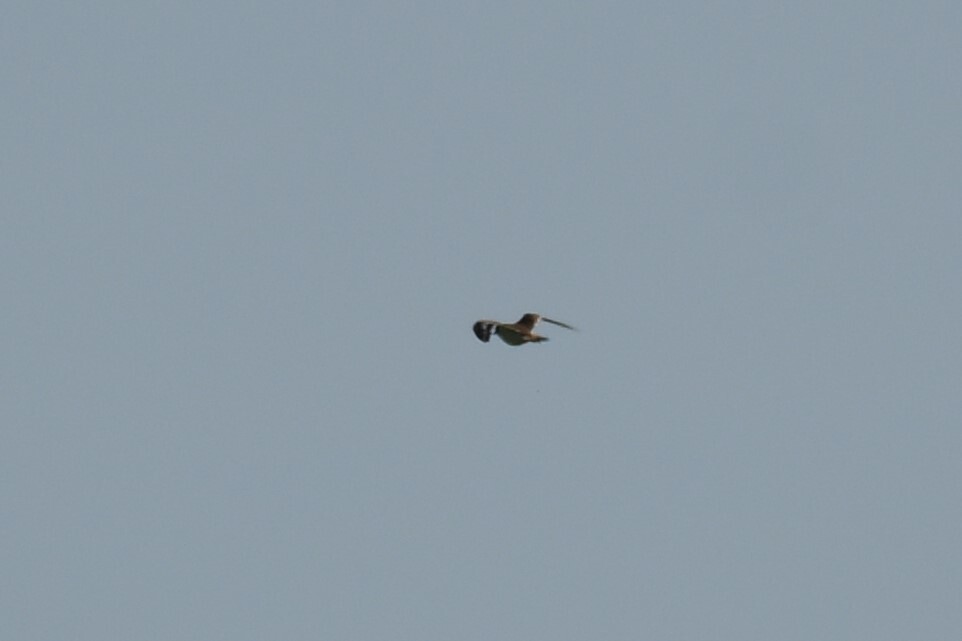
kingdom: Animalia
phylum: Chordata
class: Aves
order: Charadriiformes
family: Charadriidae
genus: Charadrius
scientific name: Charadrius vociferus
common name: Killdeer
